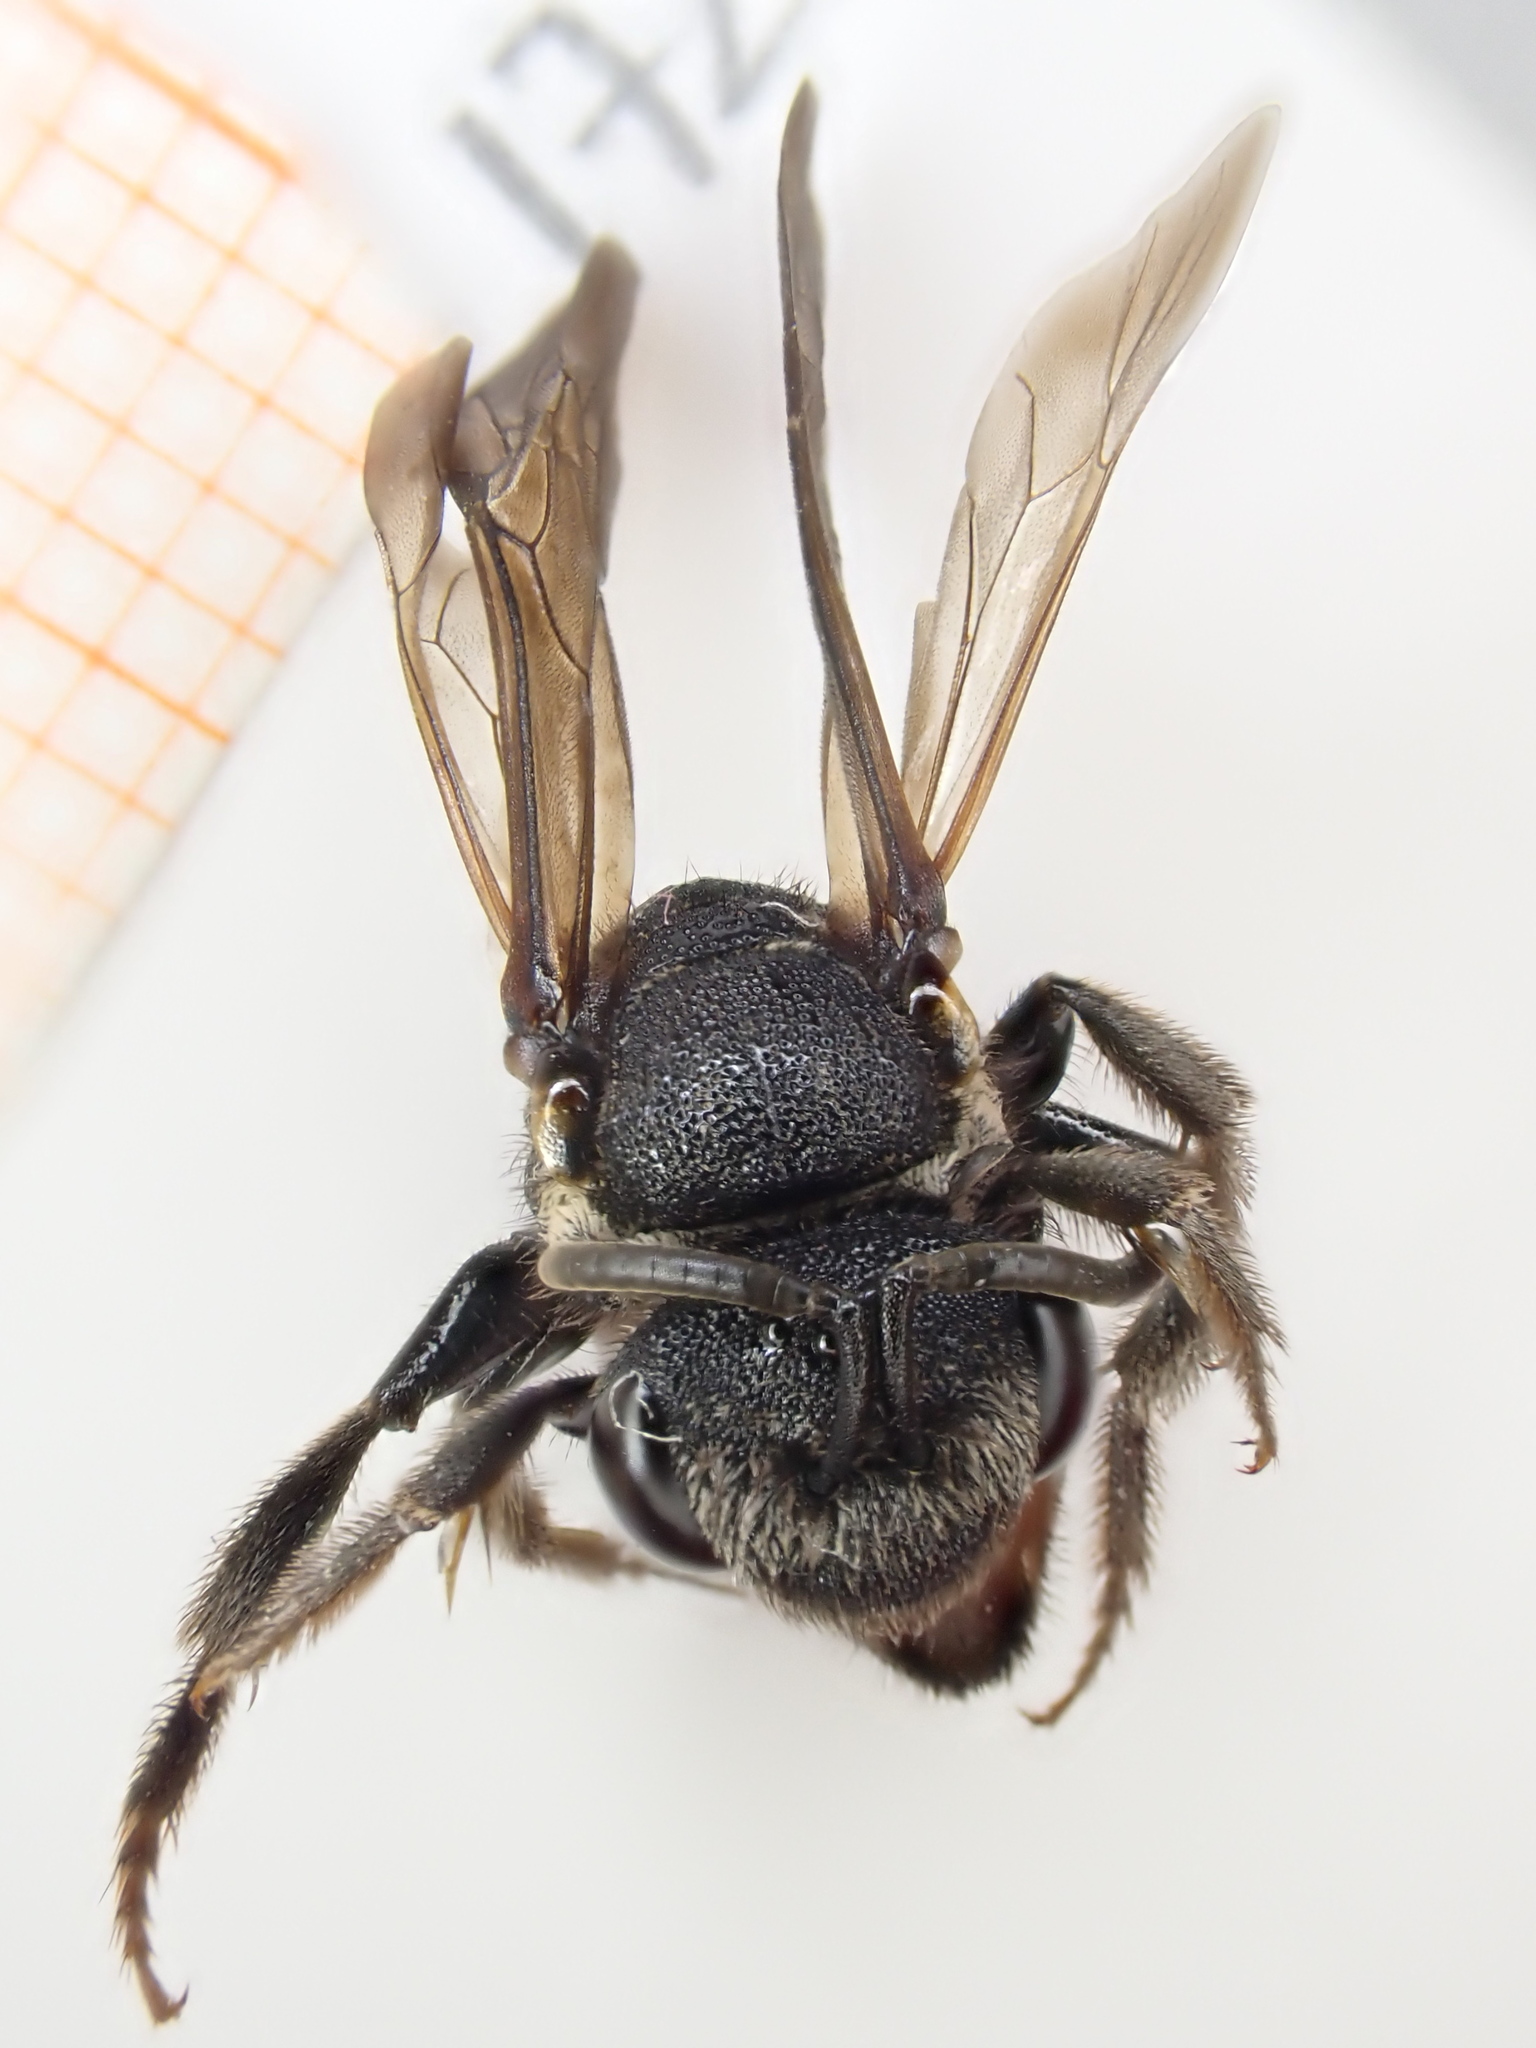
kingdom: Animalia
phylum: Arthropoda
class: Insecta
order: Hymenoptera
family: Halictidae
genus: Sphecodes
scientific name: Sphecodes albilabris
